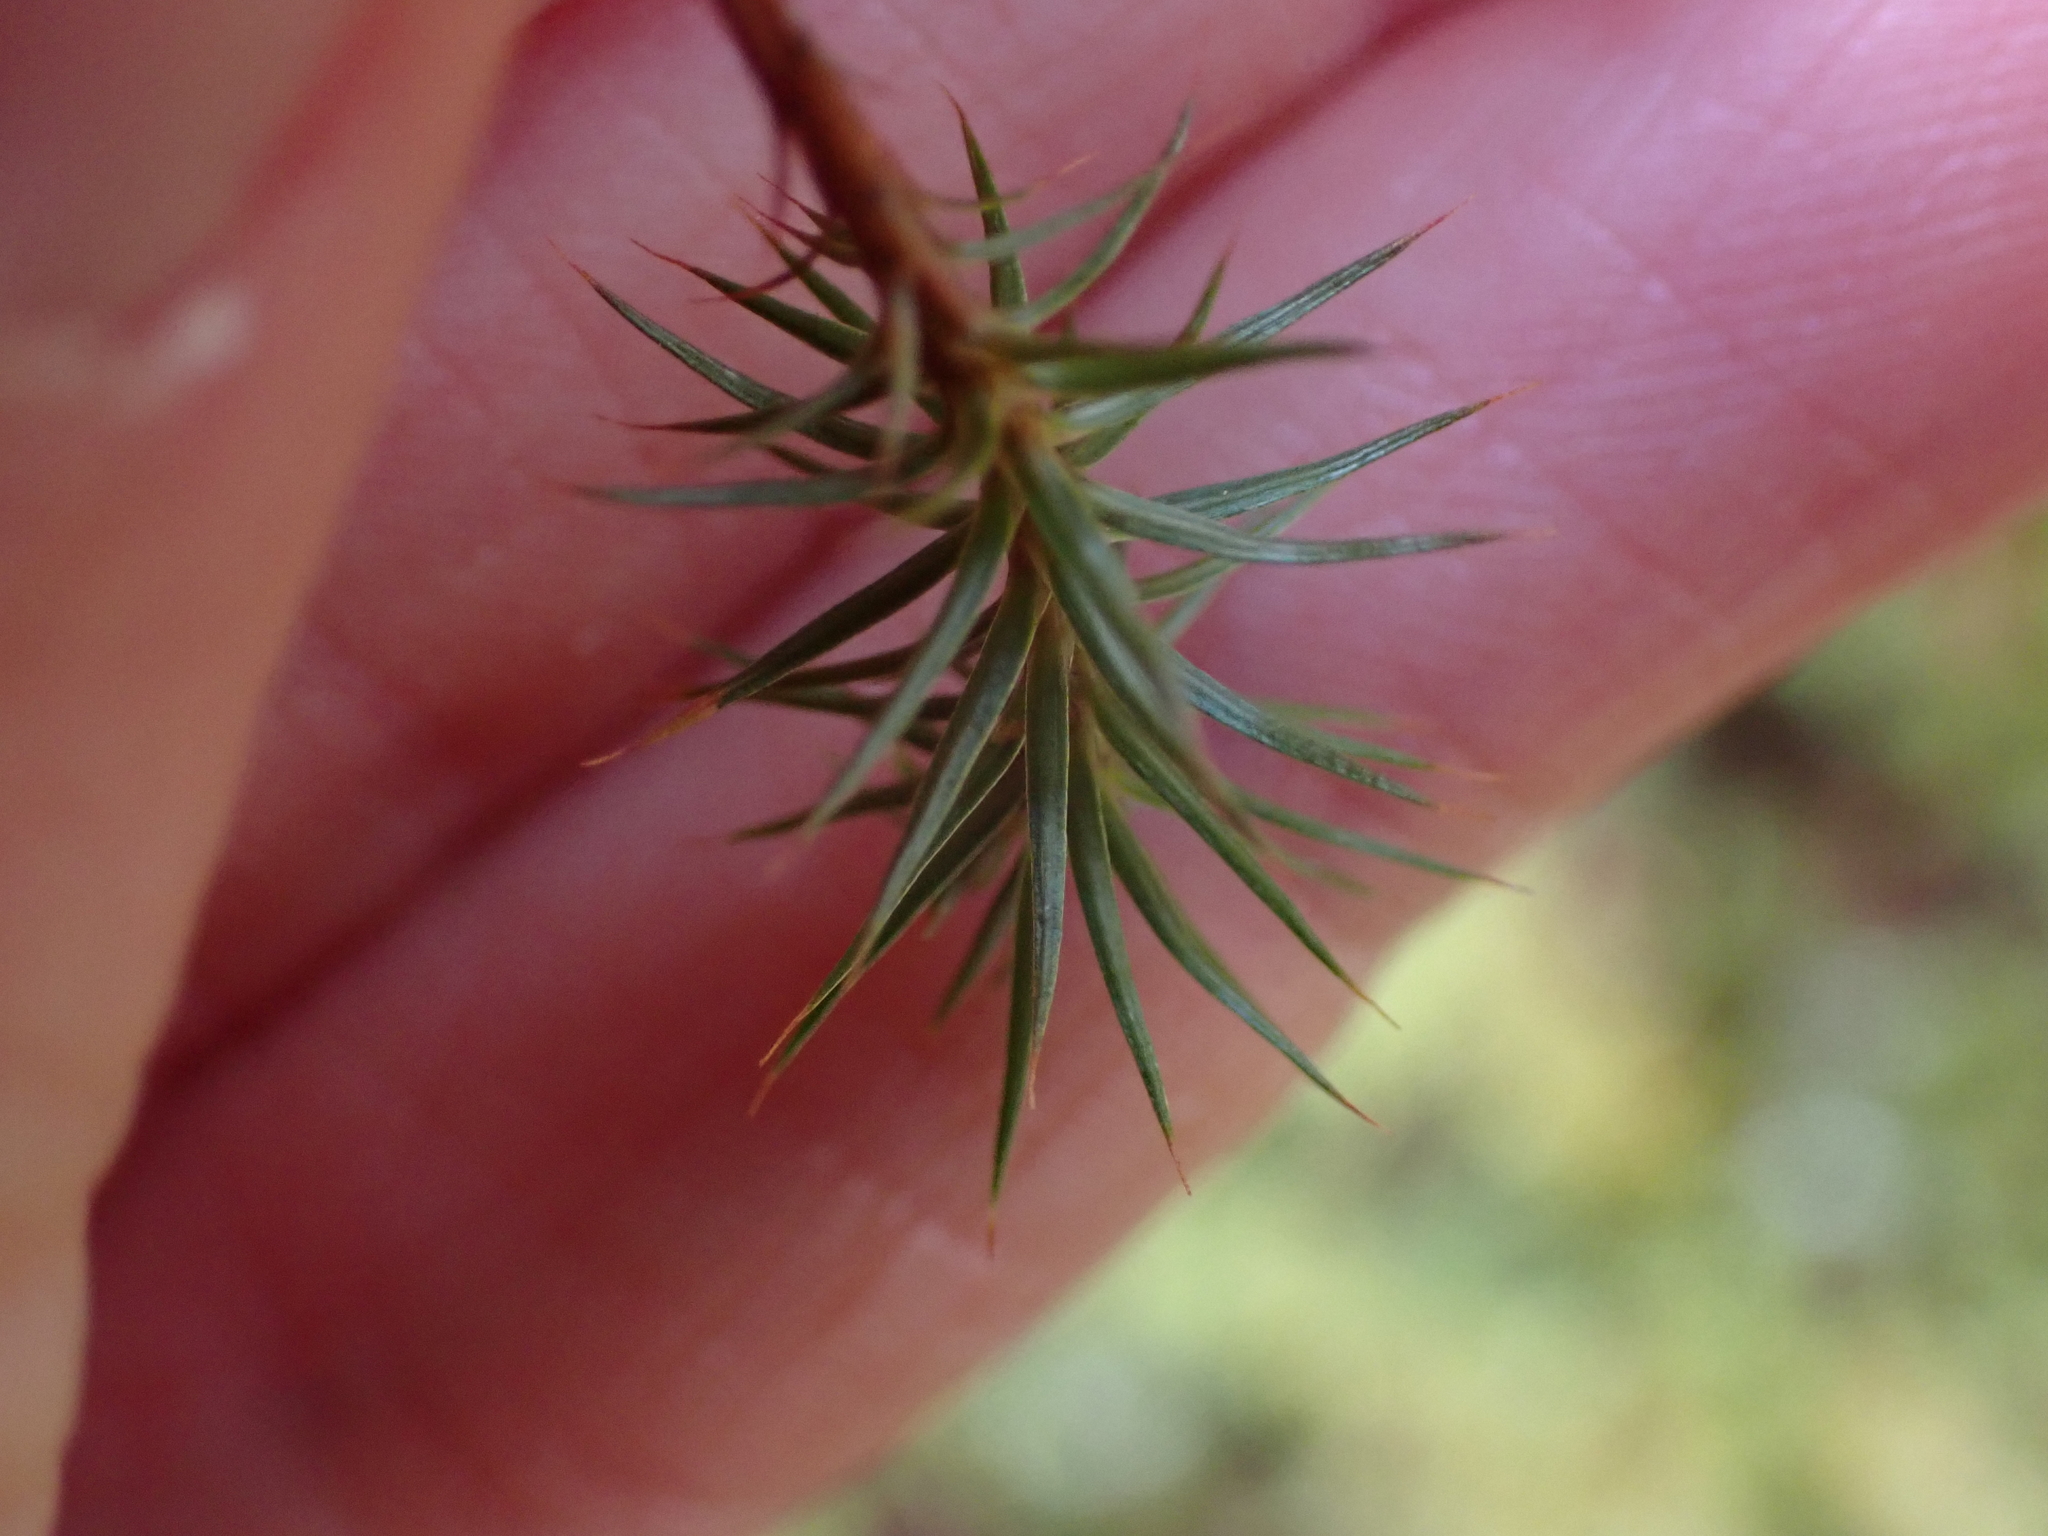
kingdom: Plantae
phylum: Bryophyta
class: Polytrichopsida
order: Polytrichales
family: Polytrichaceae
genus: Polytrichum
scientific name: Polytrichum juniperinum
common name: Juniper haircap moss
